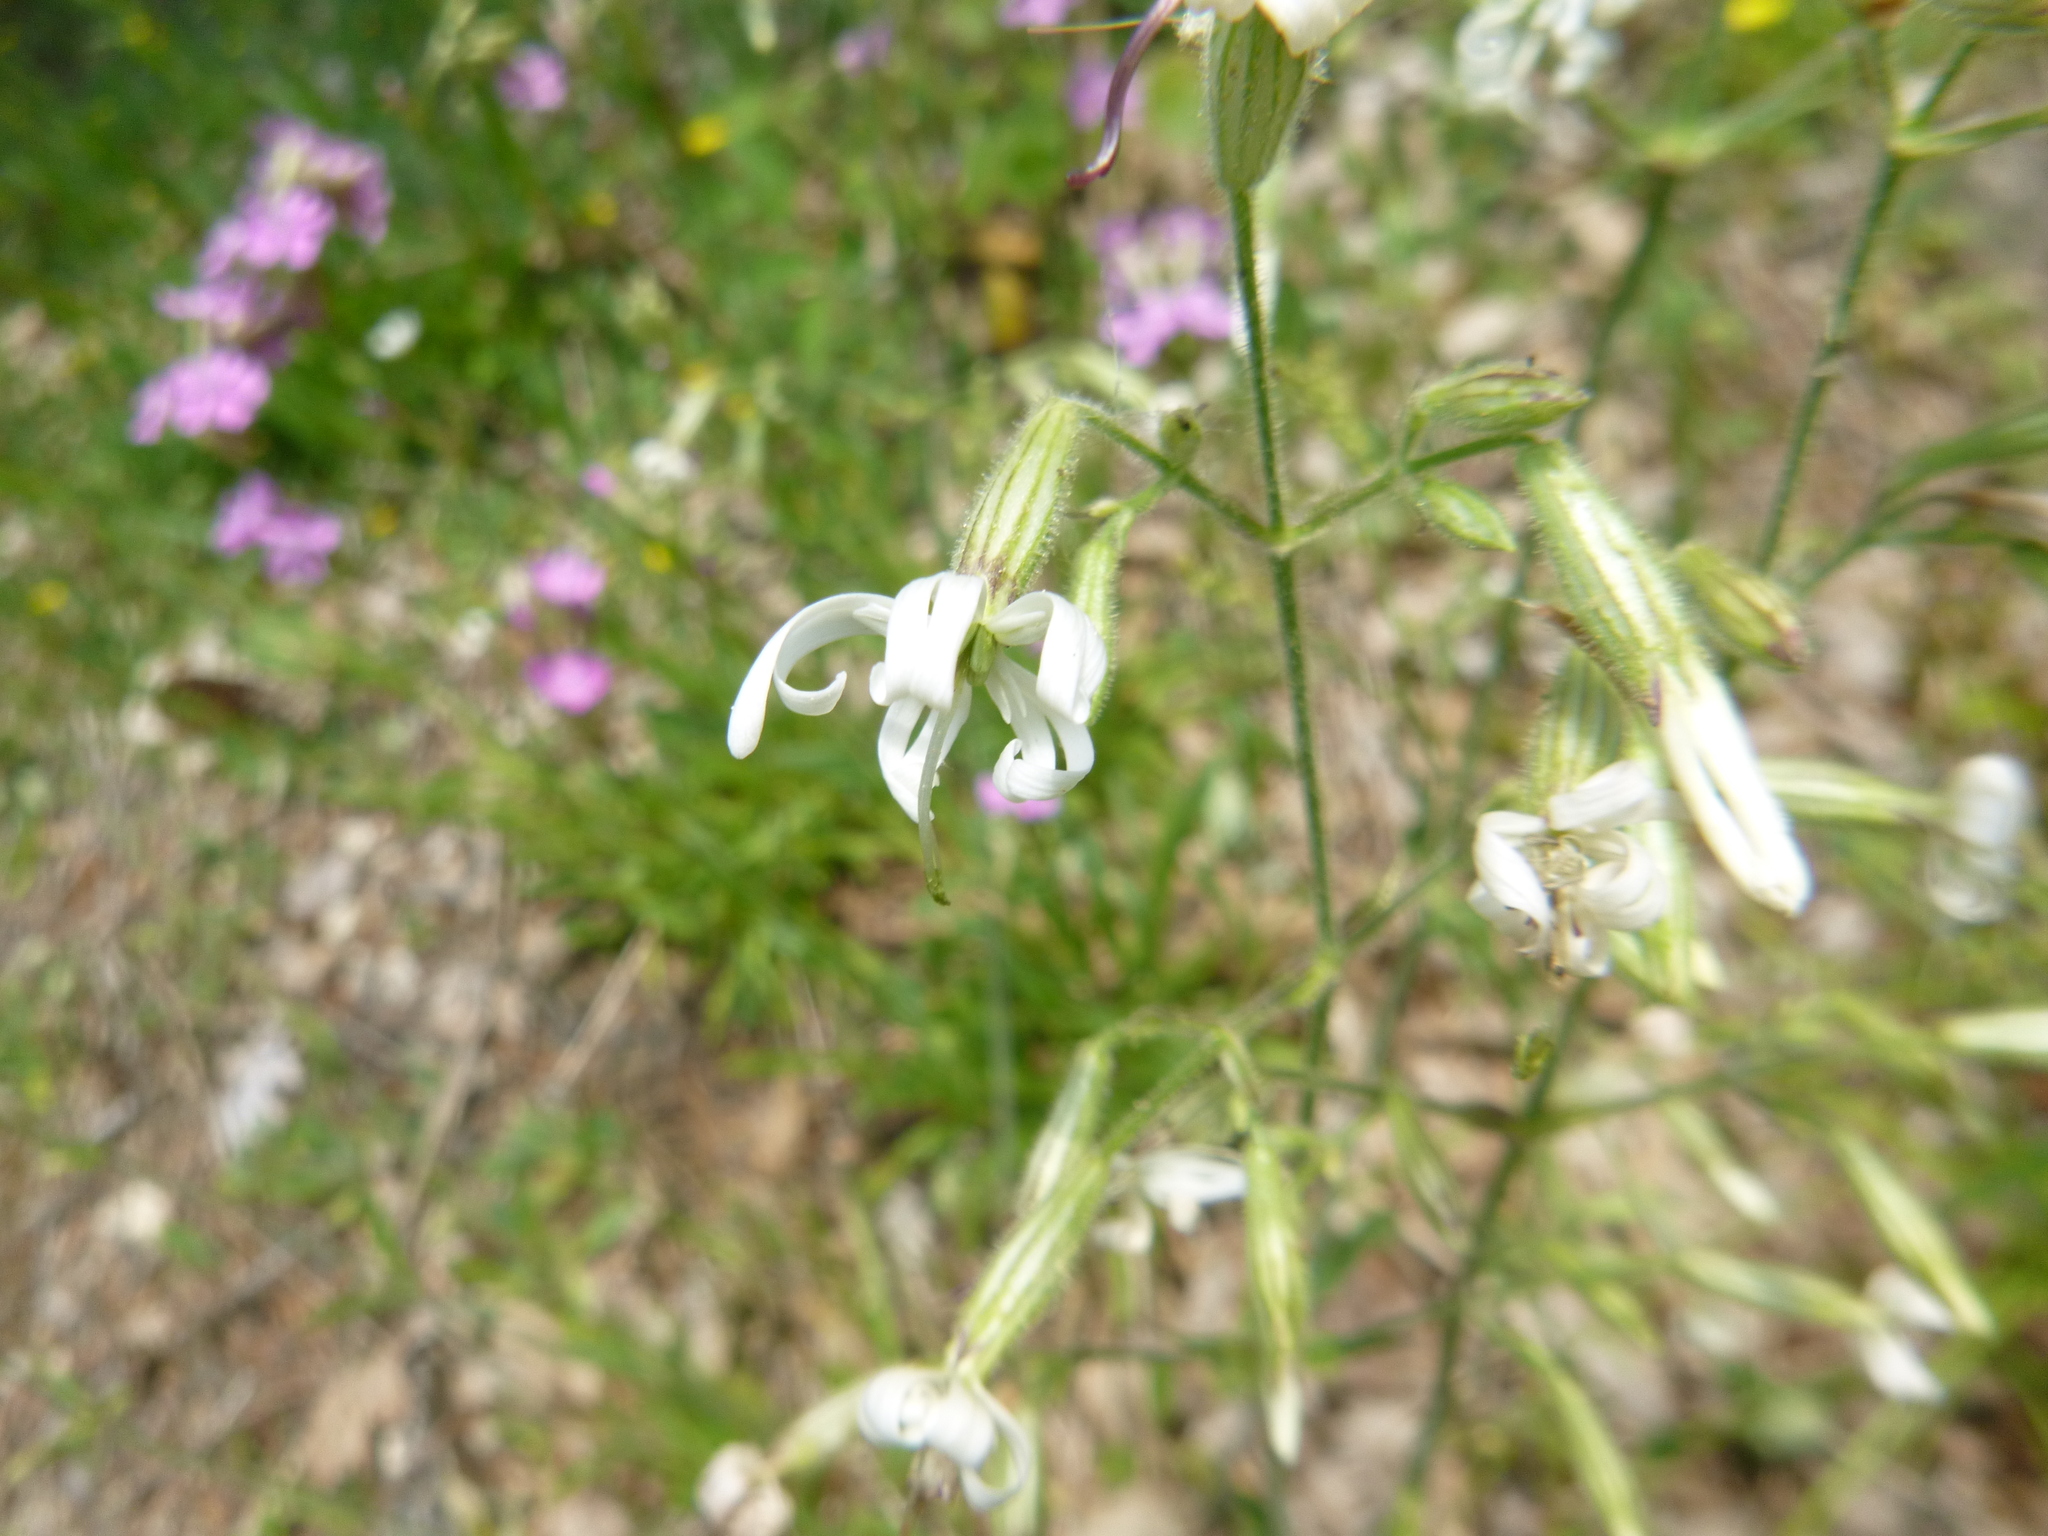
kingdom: Plantae
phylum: Tracheophyta
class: Magnoliopsida
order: Caryophyllales
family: Caryophyllaceae
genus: Silene
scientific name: Silene nutans
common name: Nottingham catchfly
